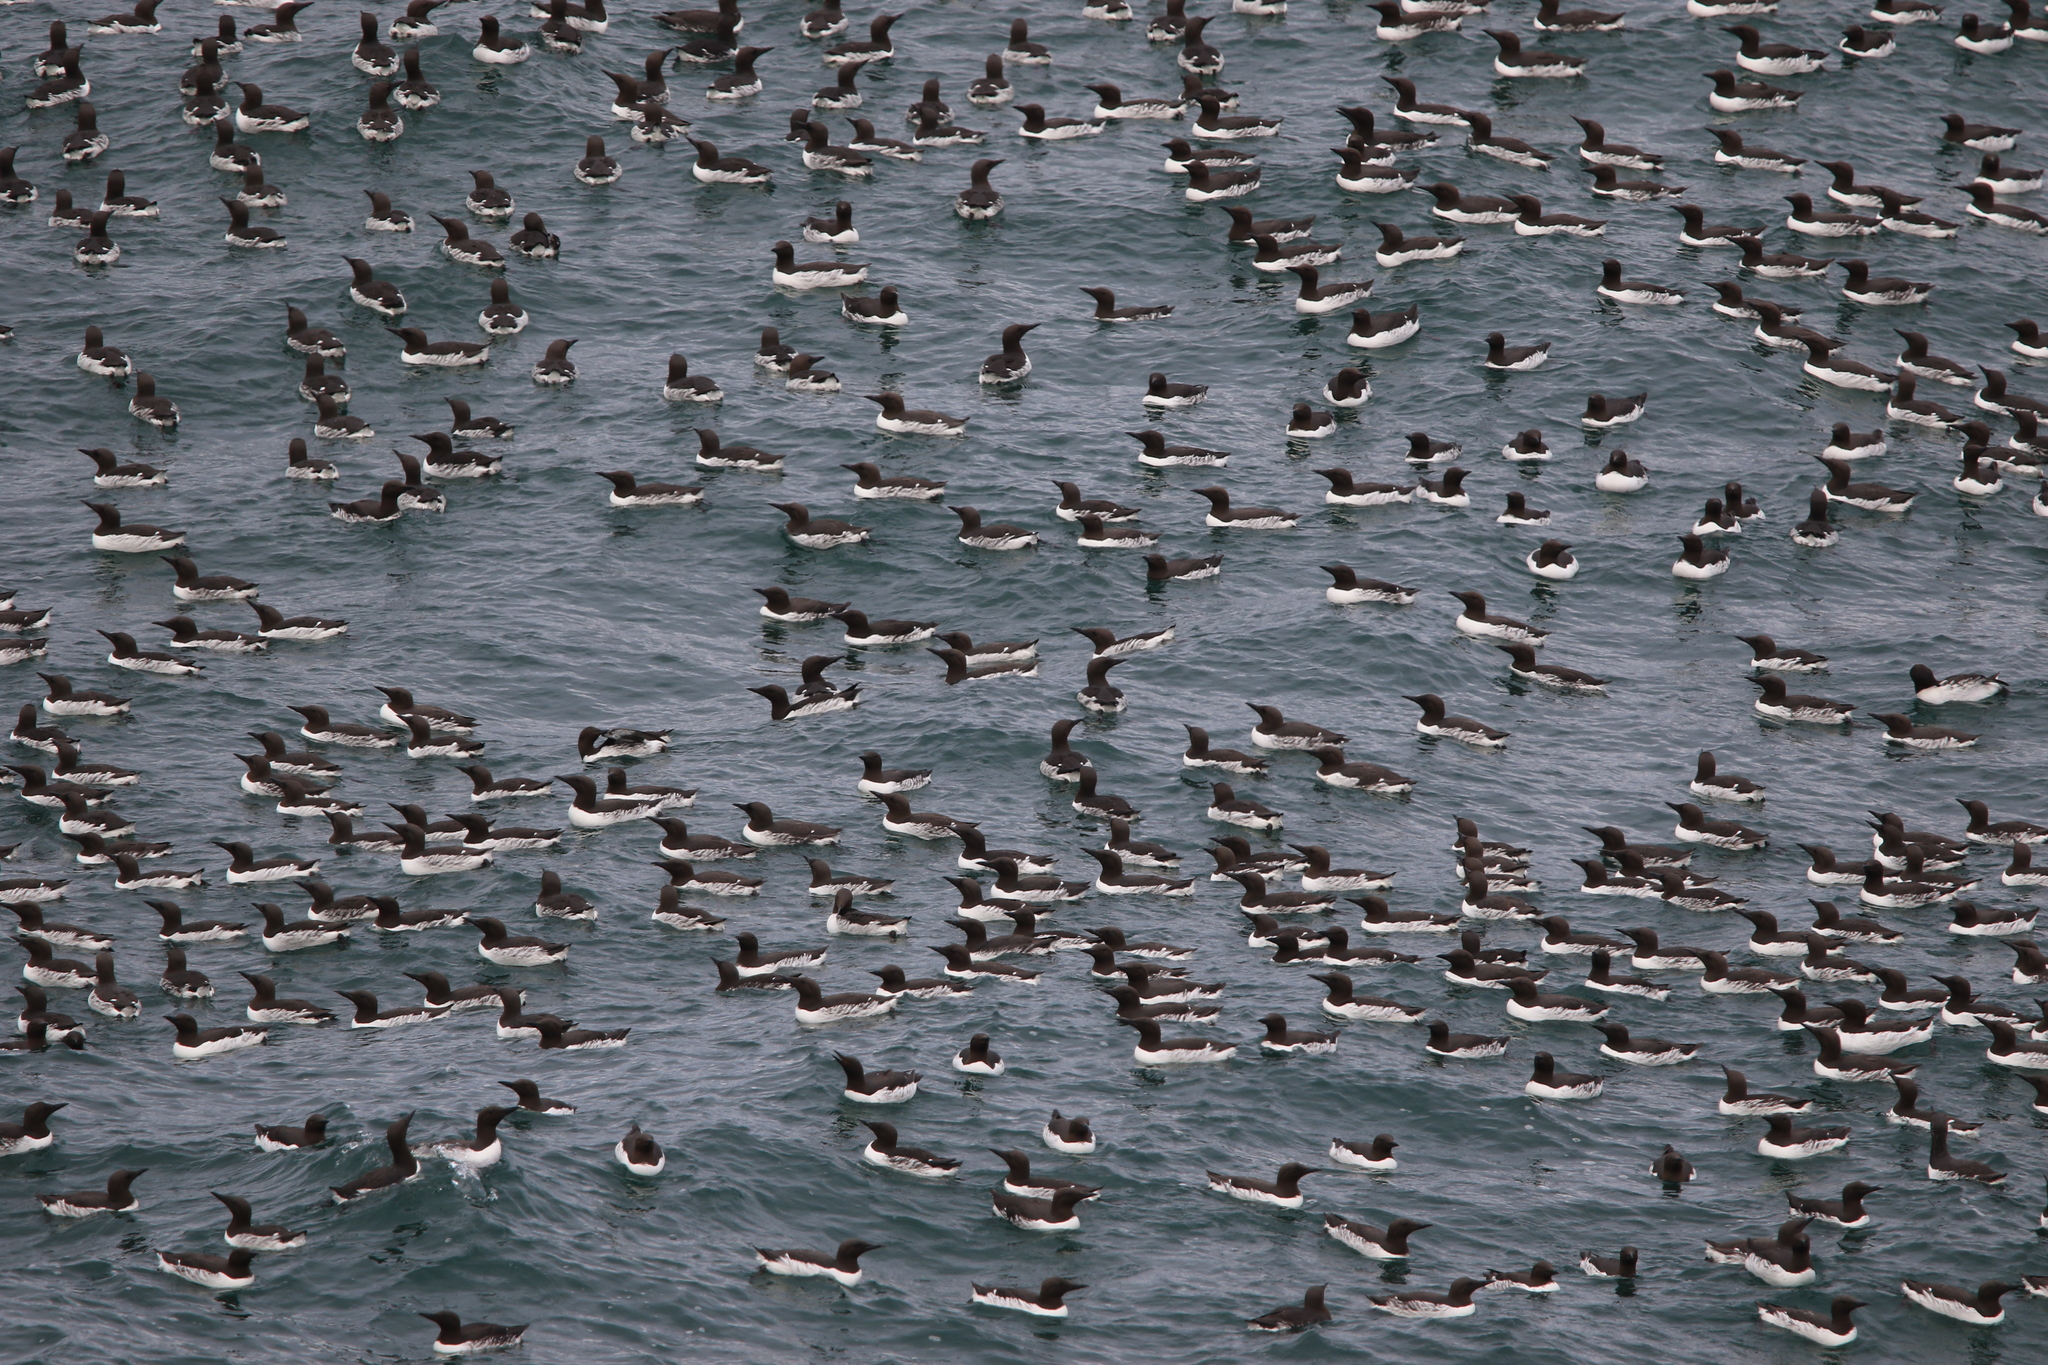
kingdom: Animalia
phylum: Chordata
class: Aves
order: Charadriiformes
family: Alcidae
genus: Uria
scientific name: Uria aalge
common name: Common murre
